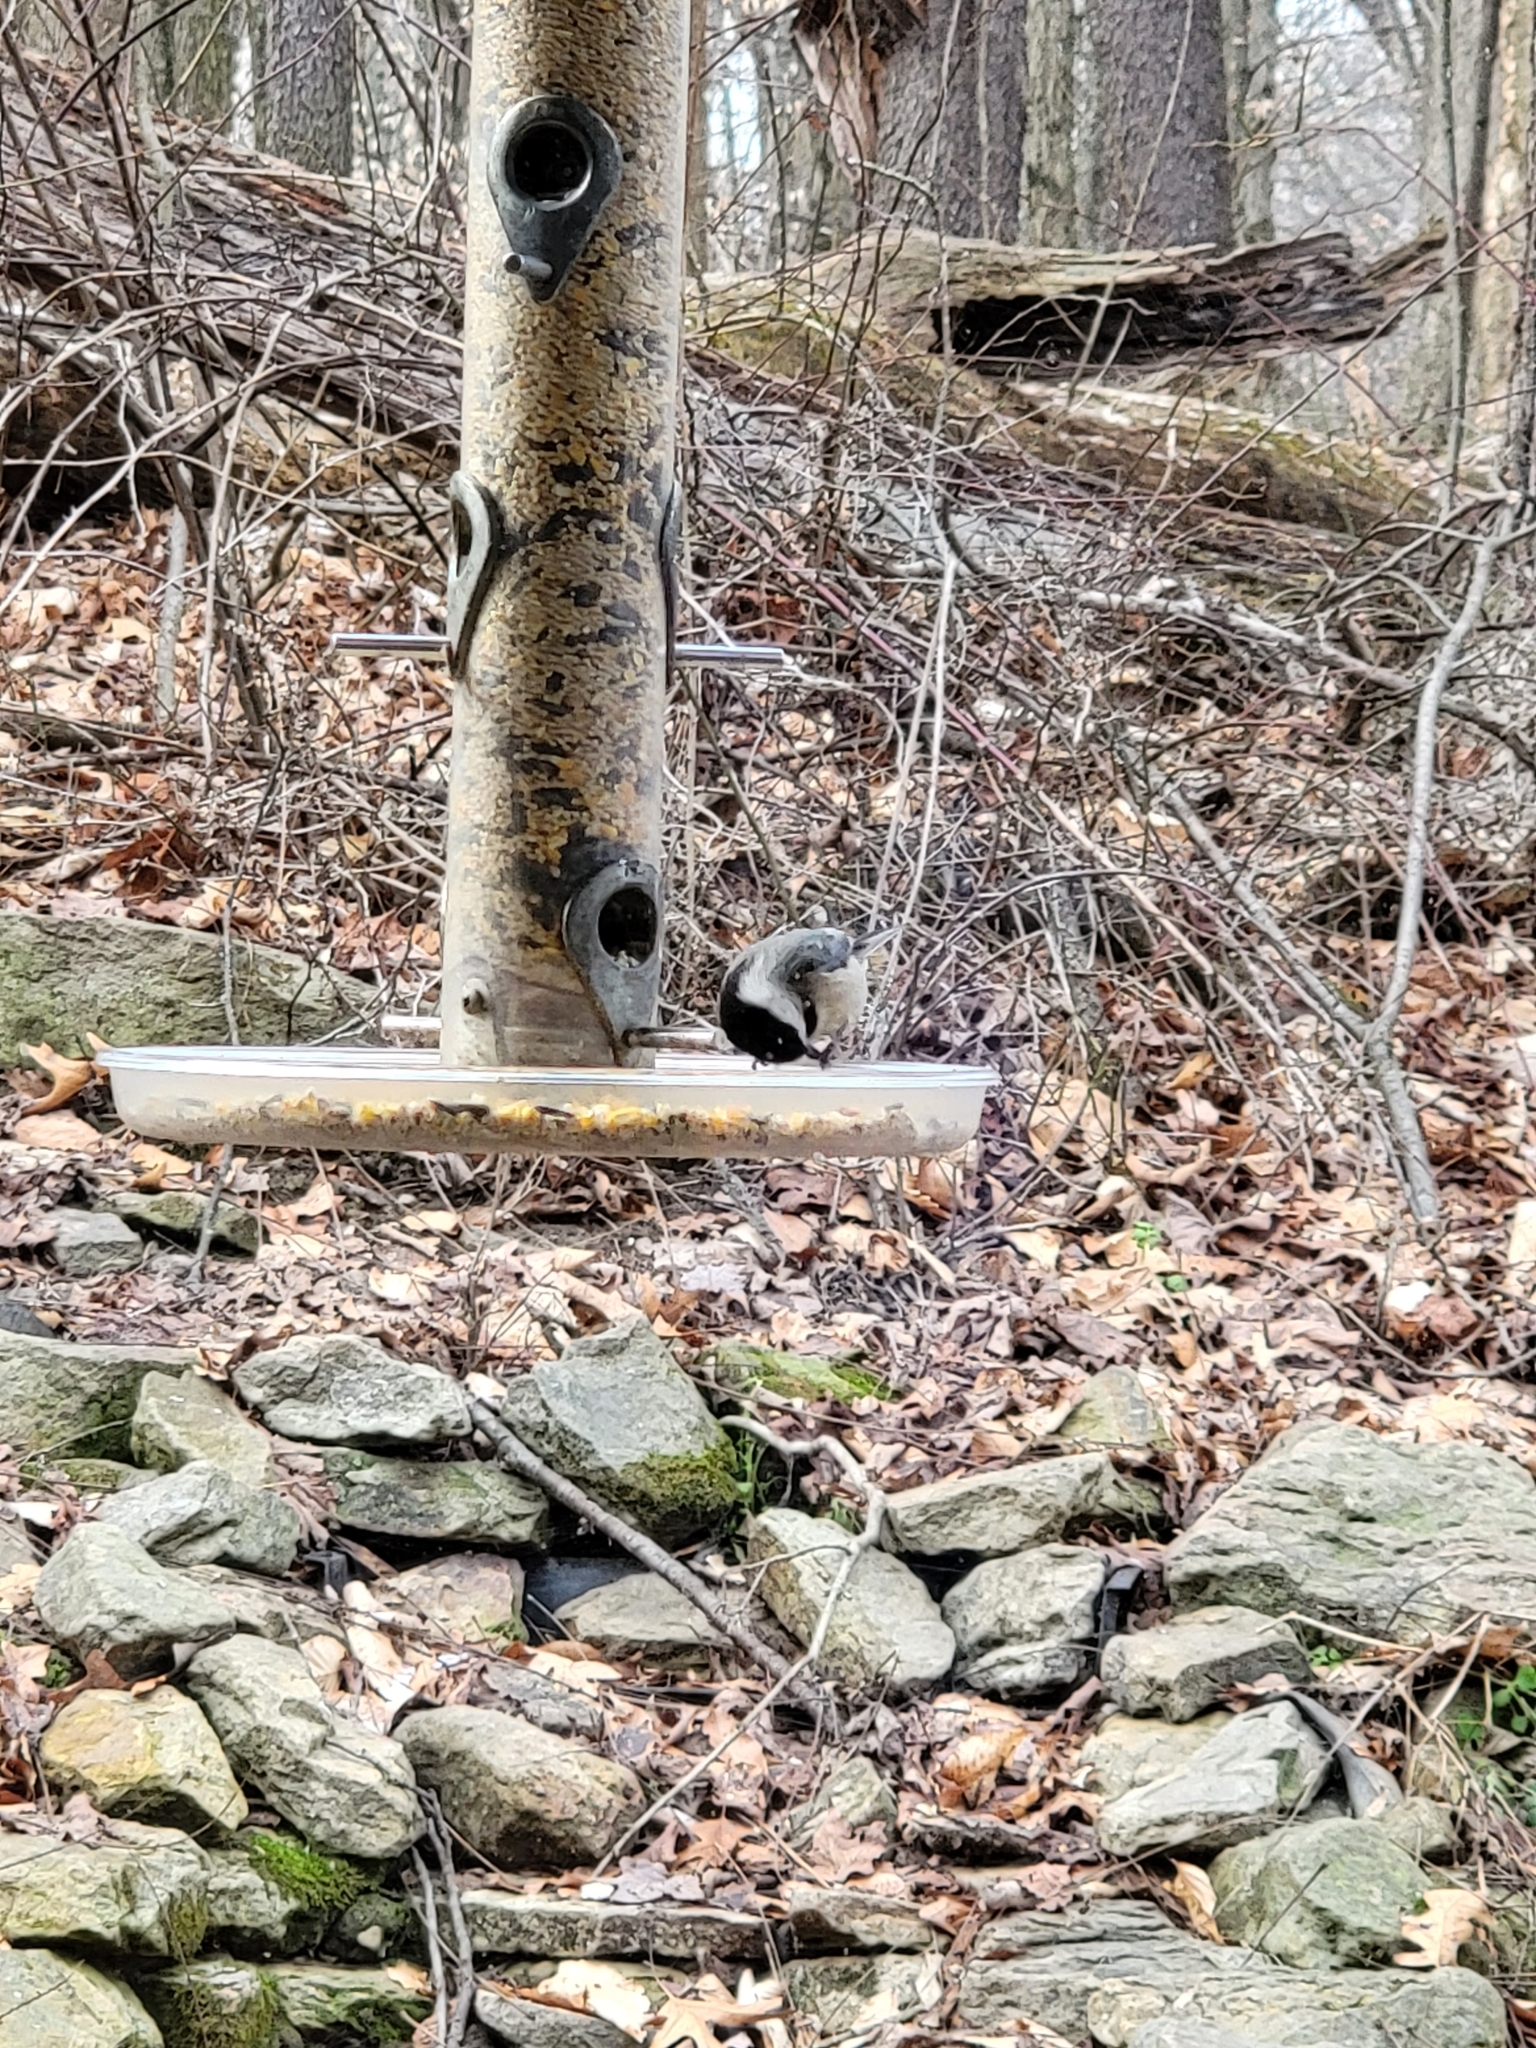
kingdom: Animalia
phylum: Chordata
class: Aves
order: Passeriformes
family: Paridae
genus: Poecile
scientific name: Poecile atricapillus
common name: Black-capped chickadee
